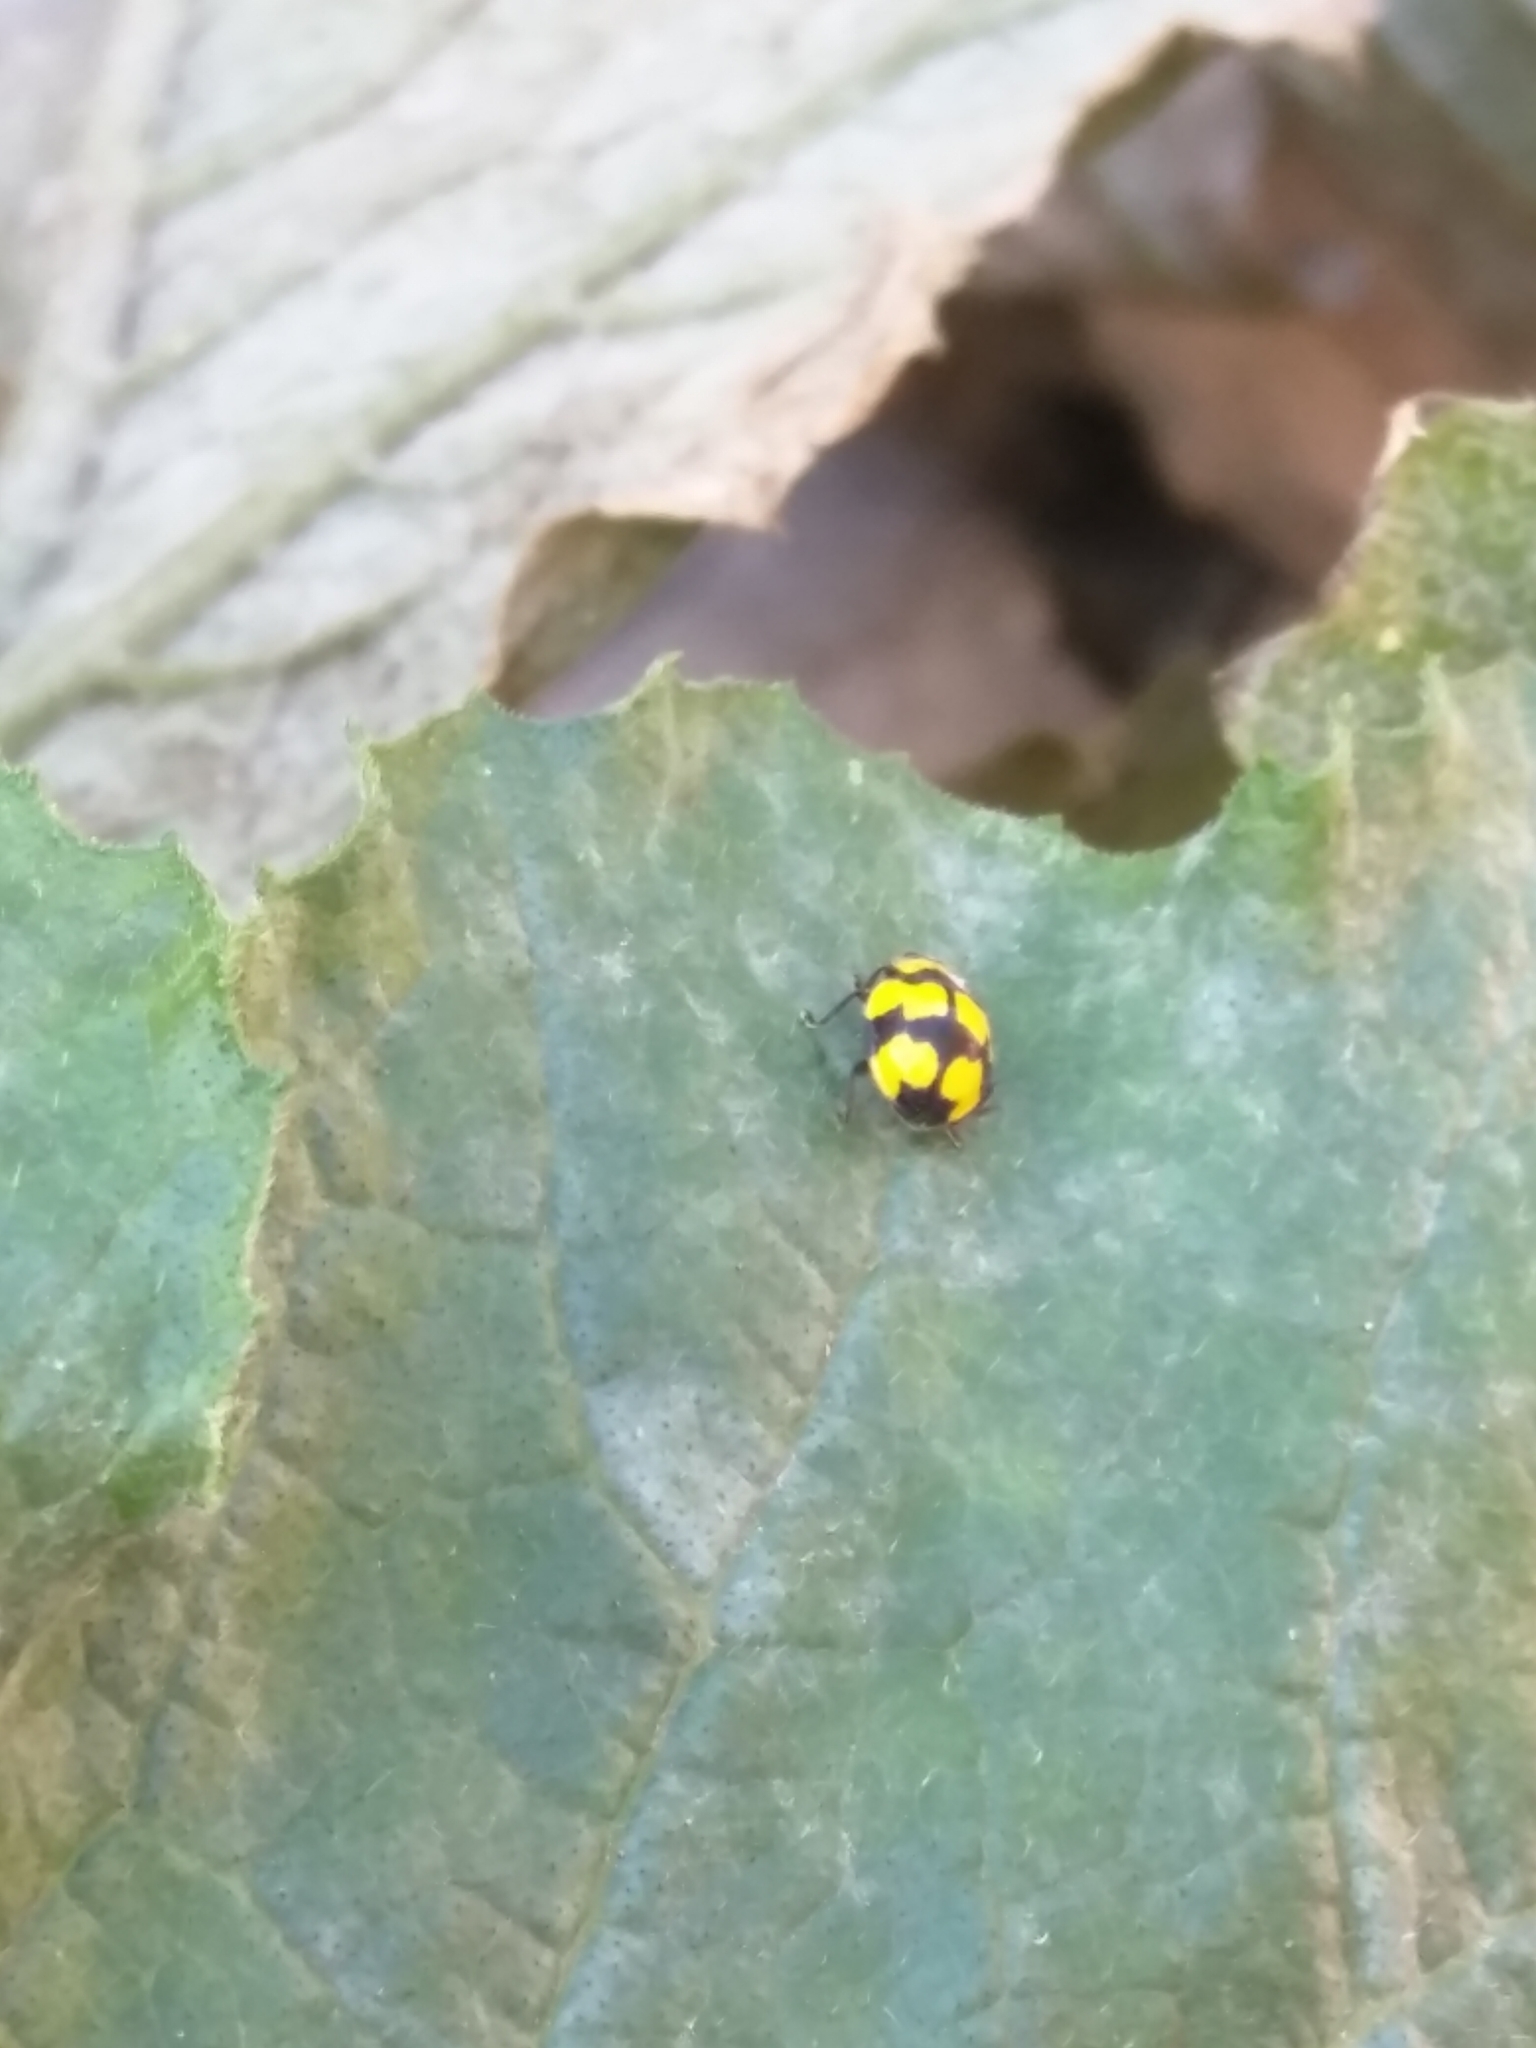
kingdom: Animalia
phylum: Arthropoda
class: Insecta
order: Coleoptera
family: Coccinellidae
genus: Illeis
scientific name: Illeis galbula
